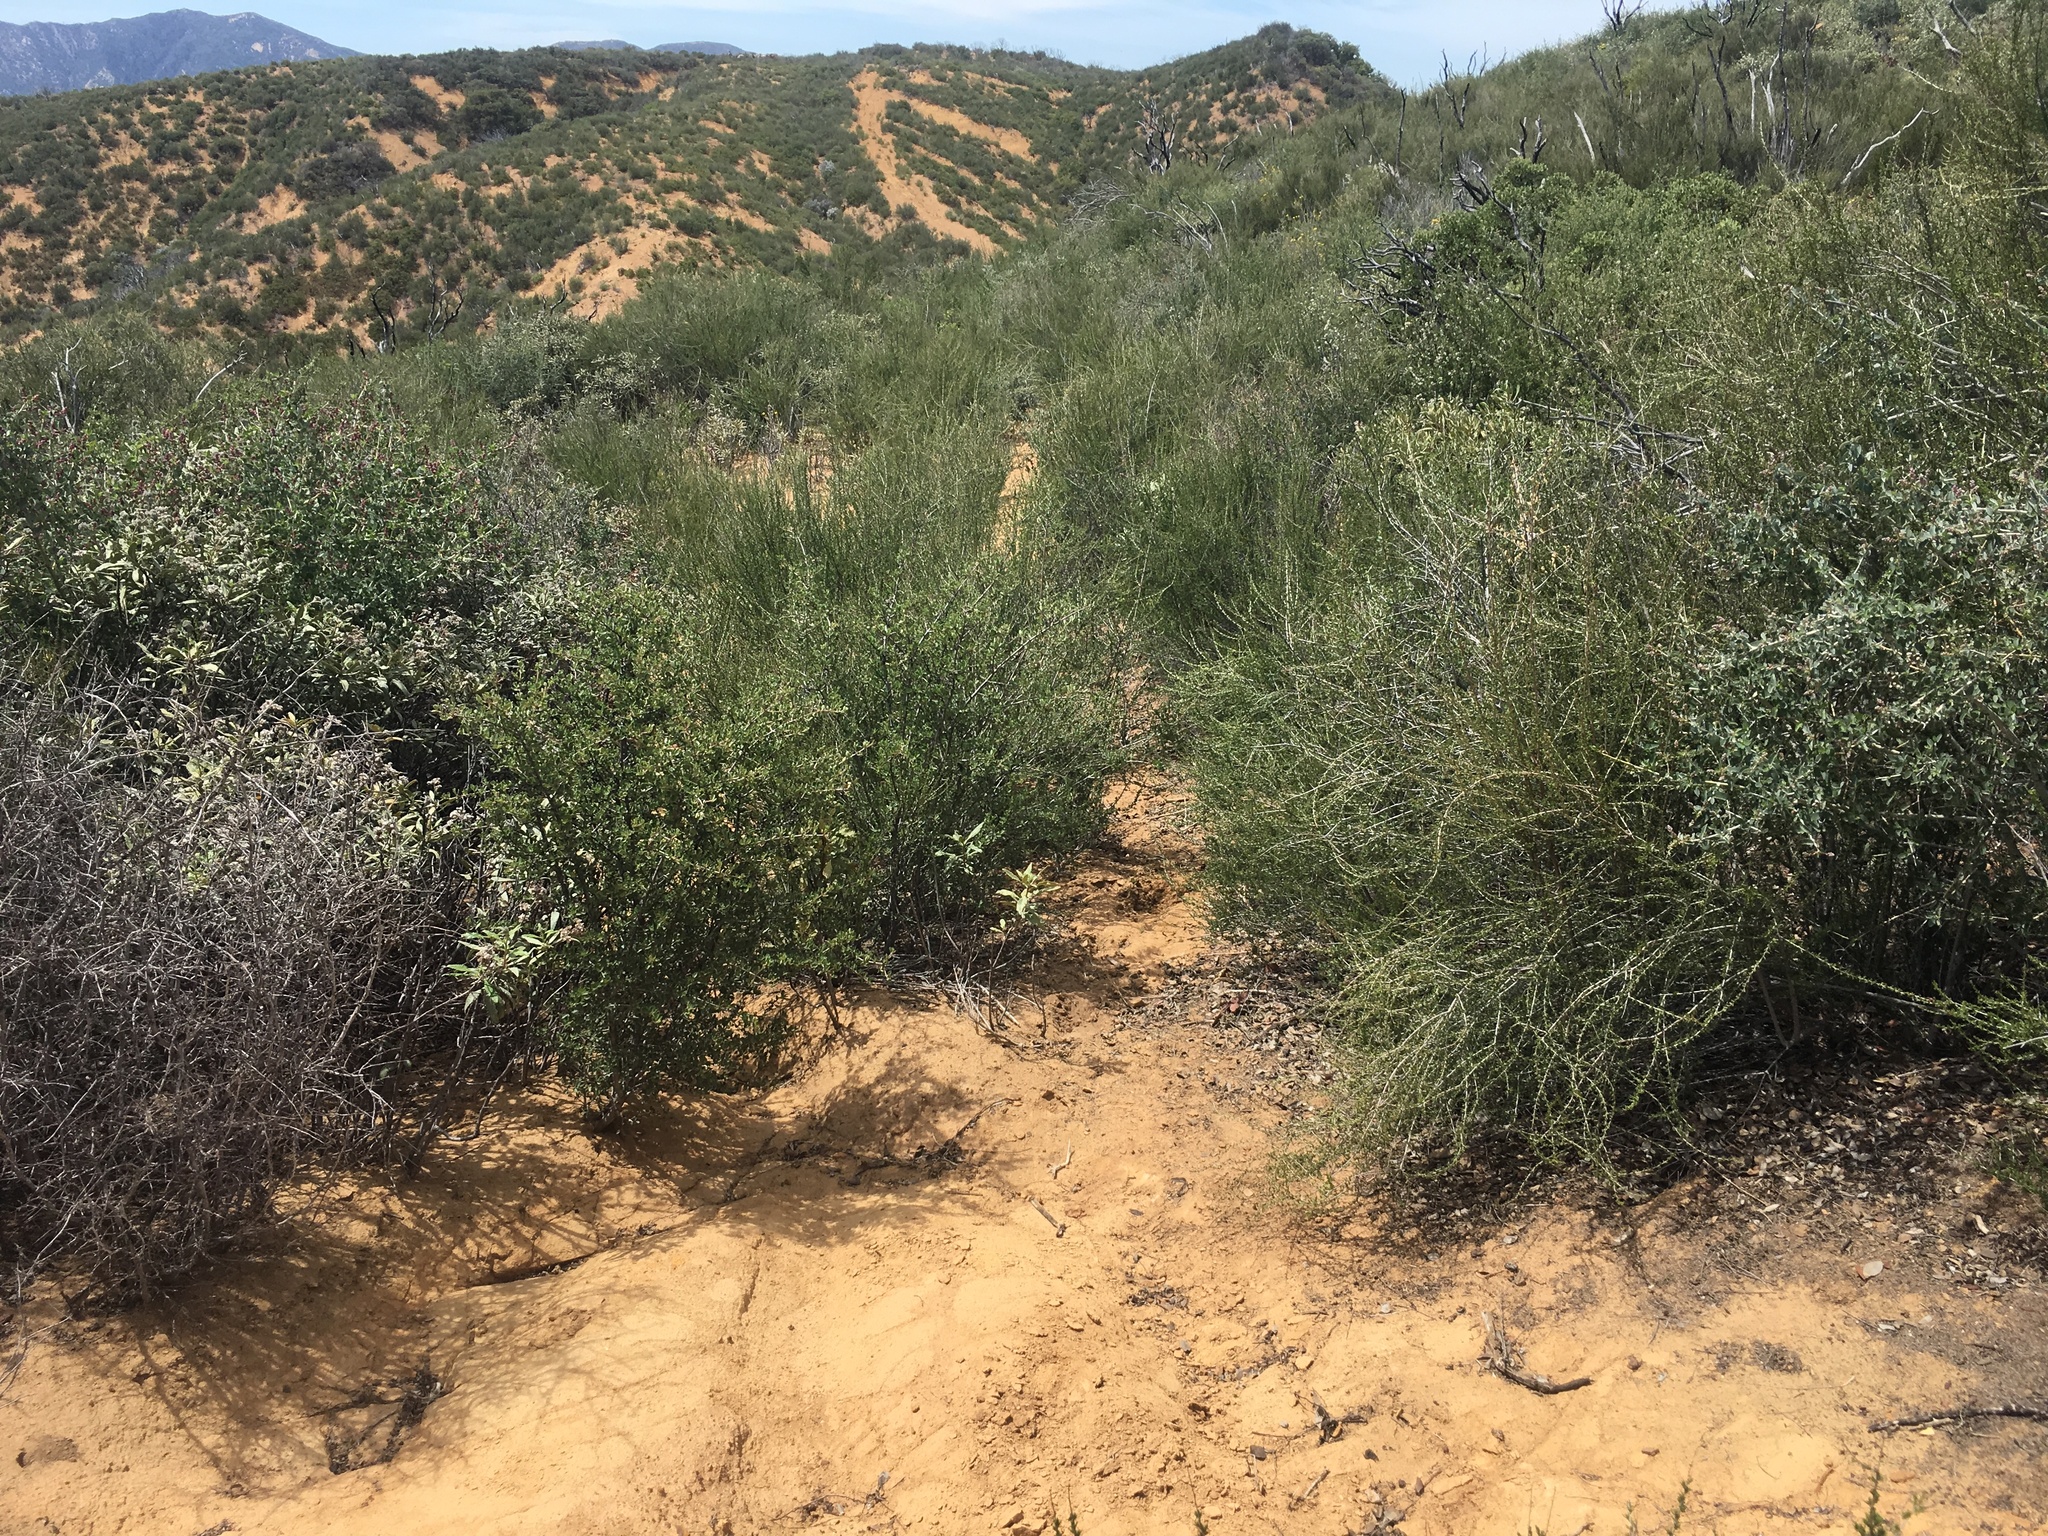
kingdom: Plantae
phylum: Tracheophyta
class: Magnoliopsida
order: Rosales
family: Rosaceae
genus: Adenostoma
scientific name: Adenostoma fasciculatum
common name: Chamise
